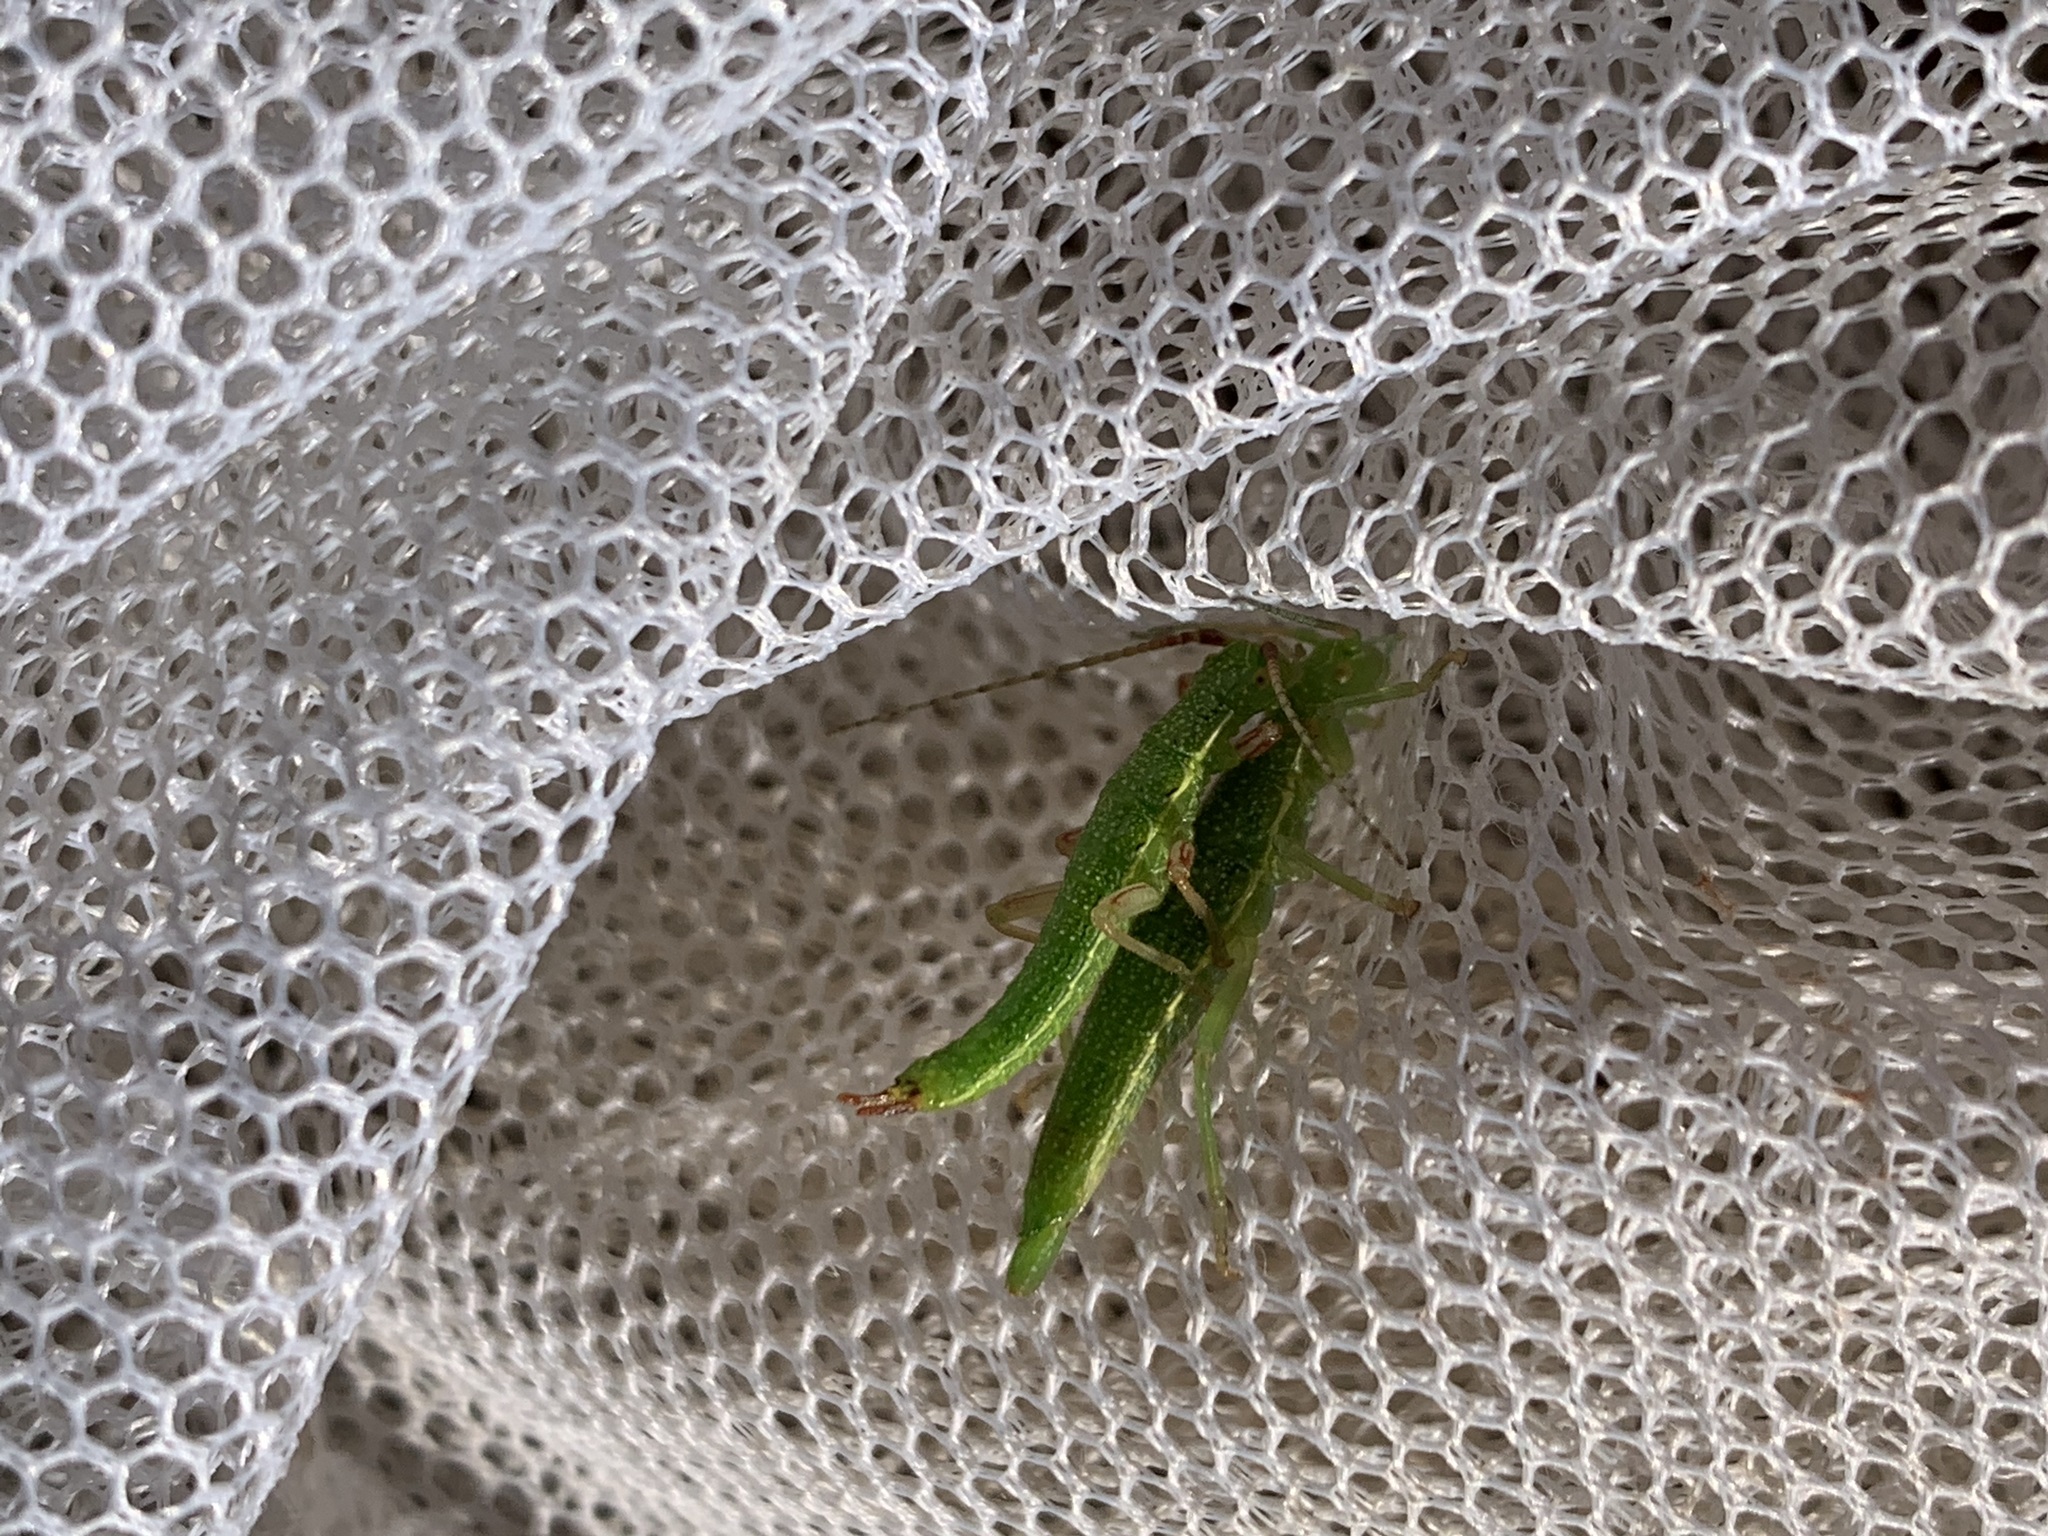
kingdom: Animalia
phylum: Arthropoda
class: Insecta
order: Phasmida
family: Timematidae
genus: Timema
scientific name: Timema californicum
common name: California timema
